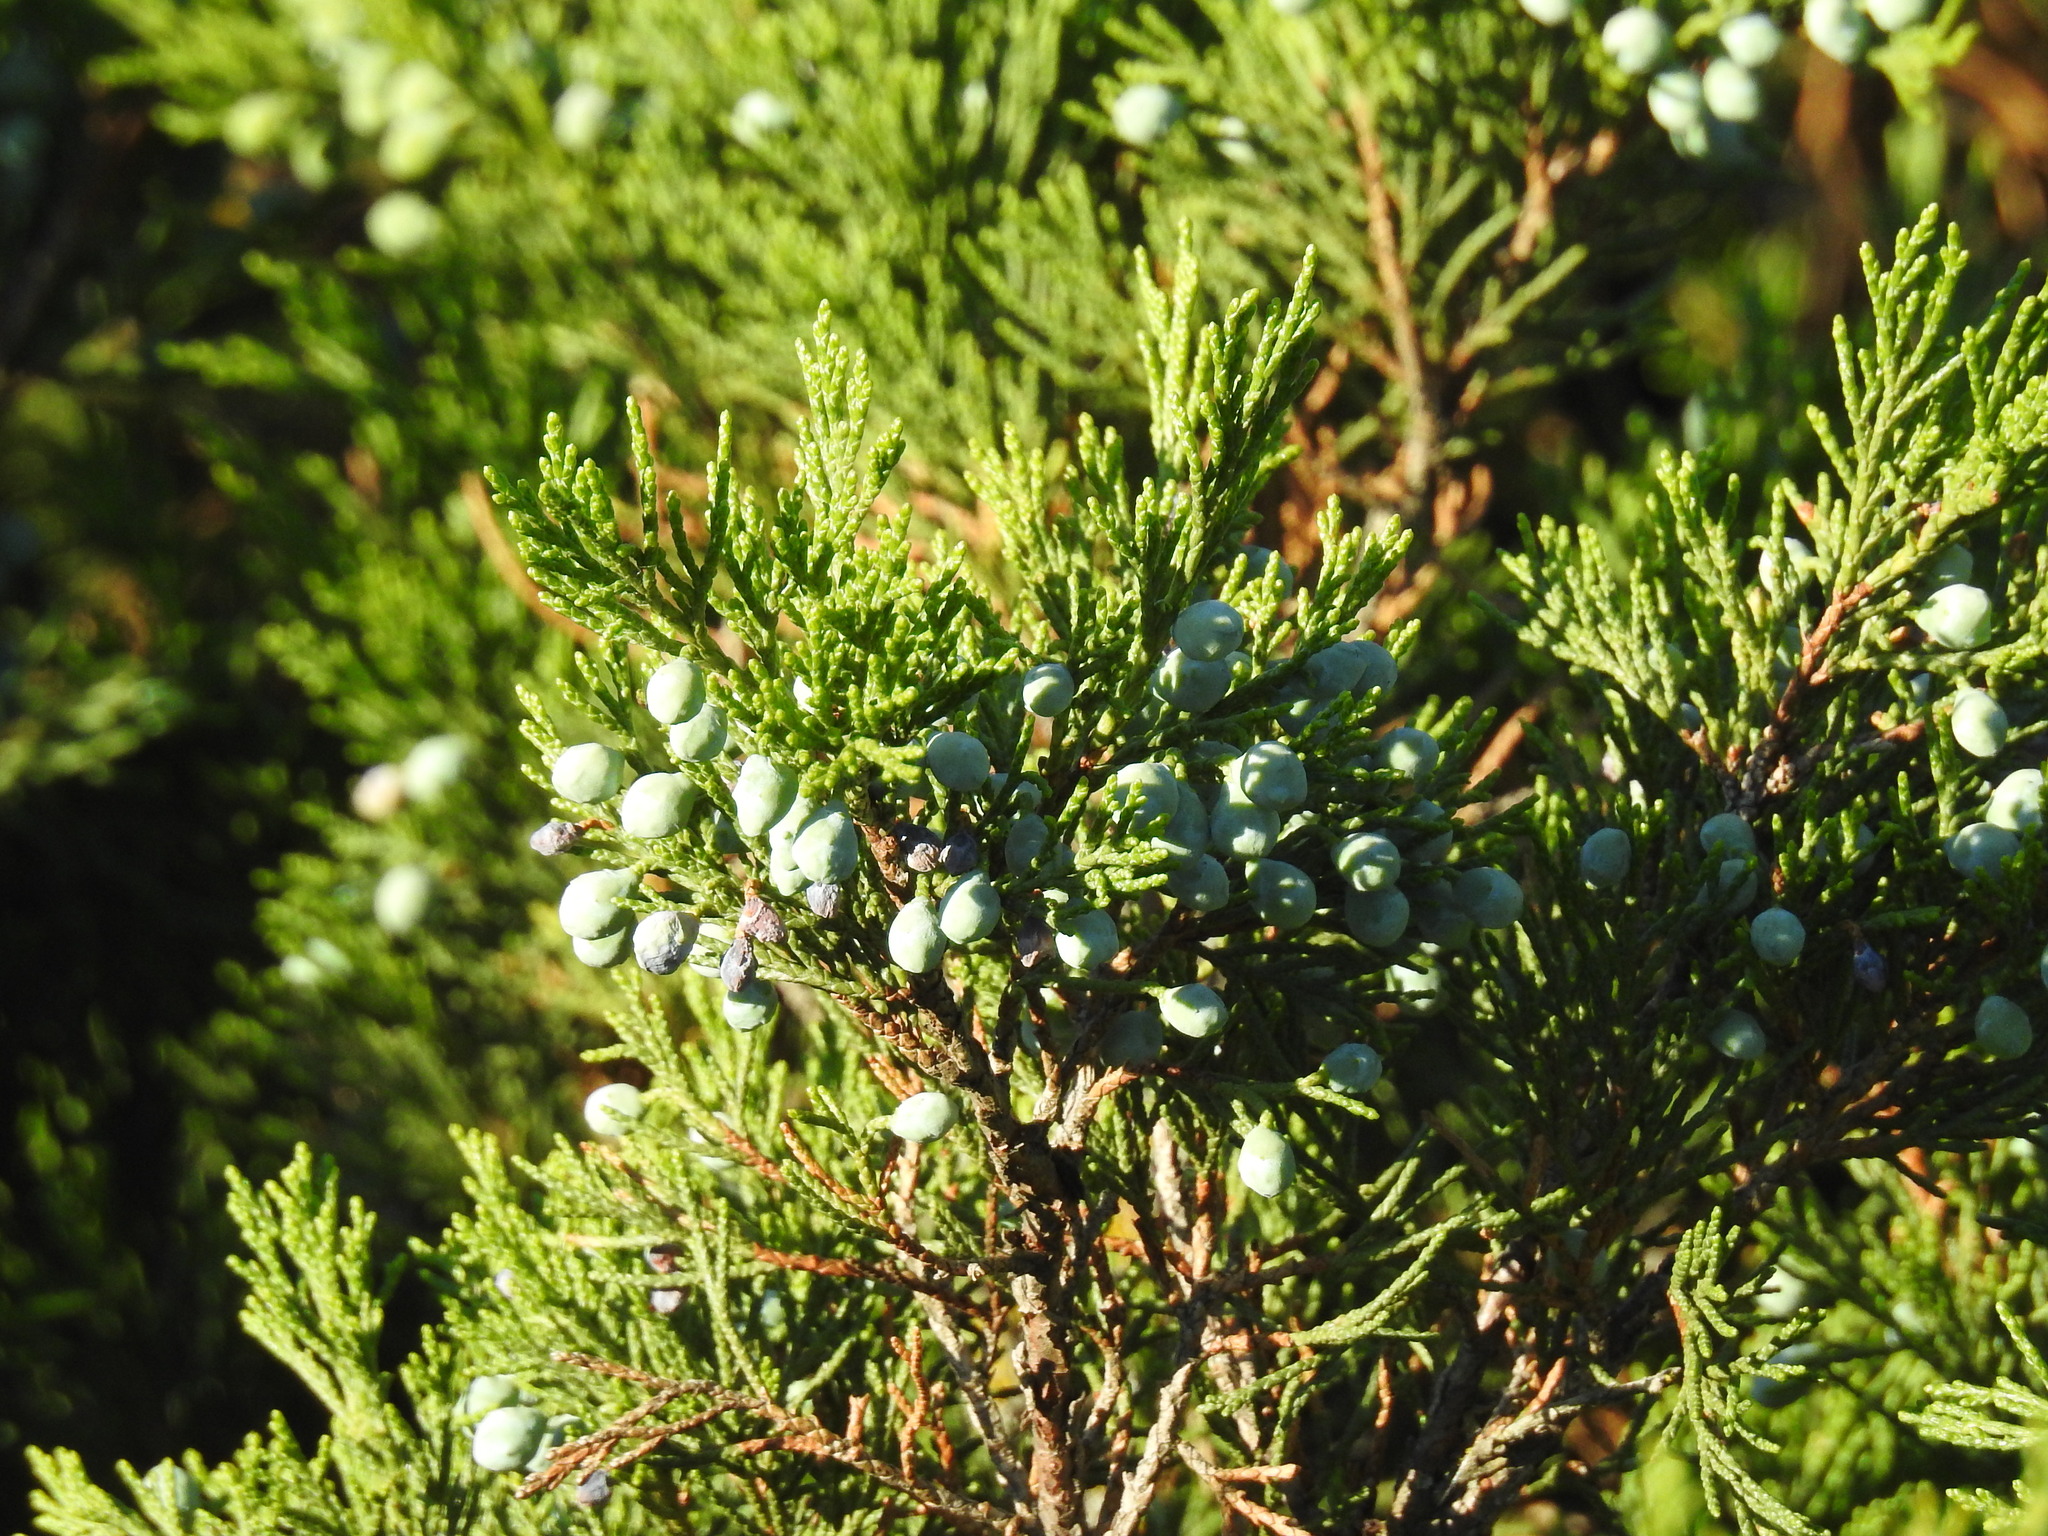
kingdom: Plantae
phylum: Tracheophyta
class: Pinopsida
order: Pinales
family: Cupressaceae
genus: Juniperus
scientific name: Juniperus sabina
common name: Savin
